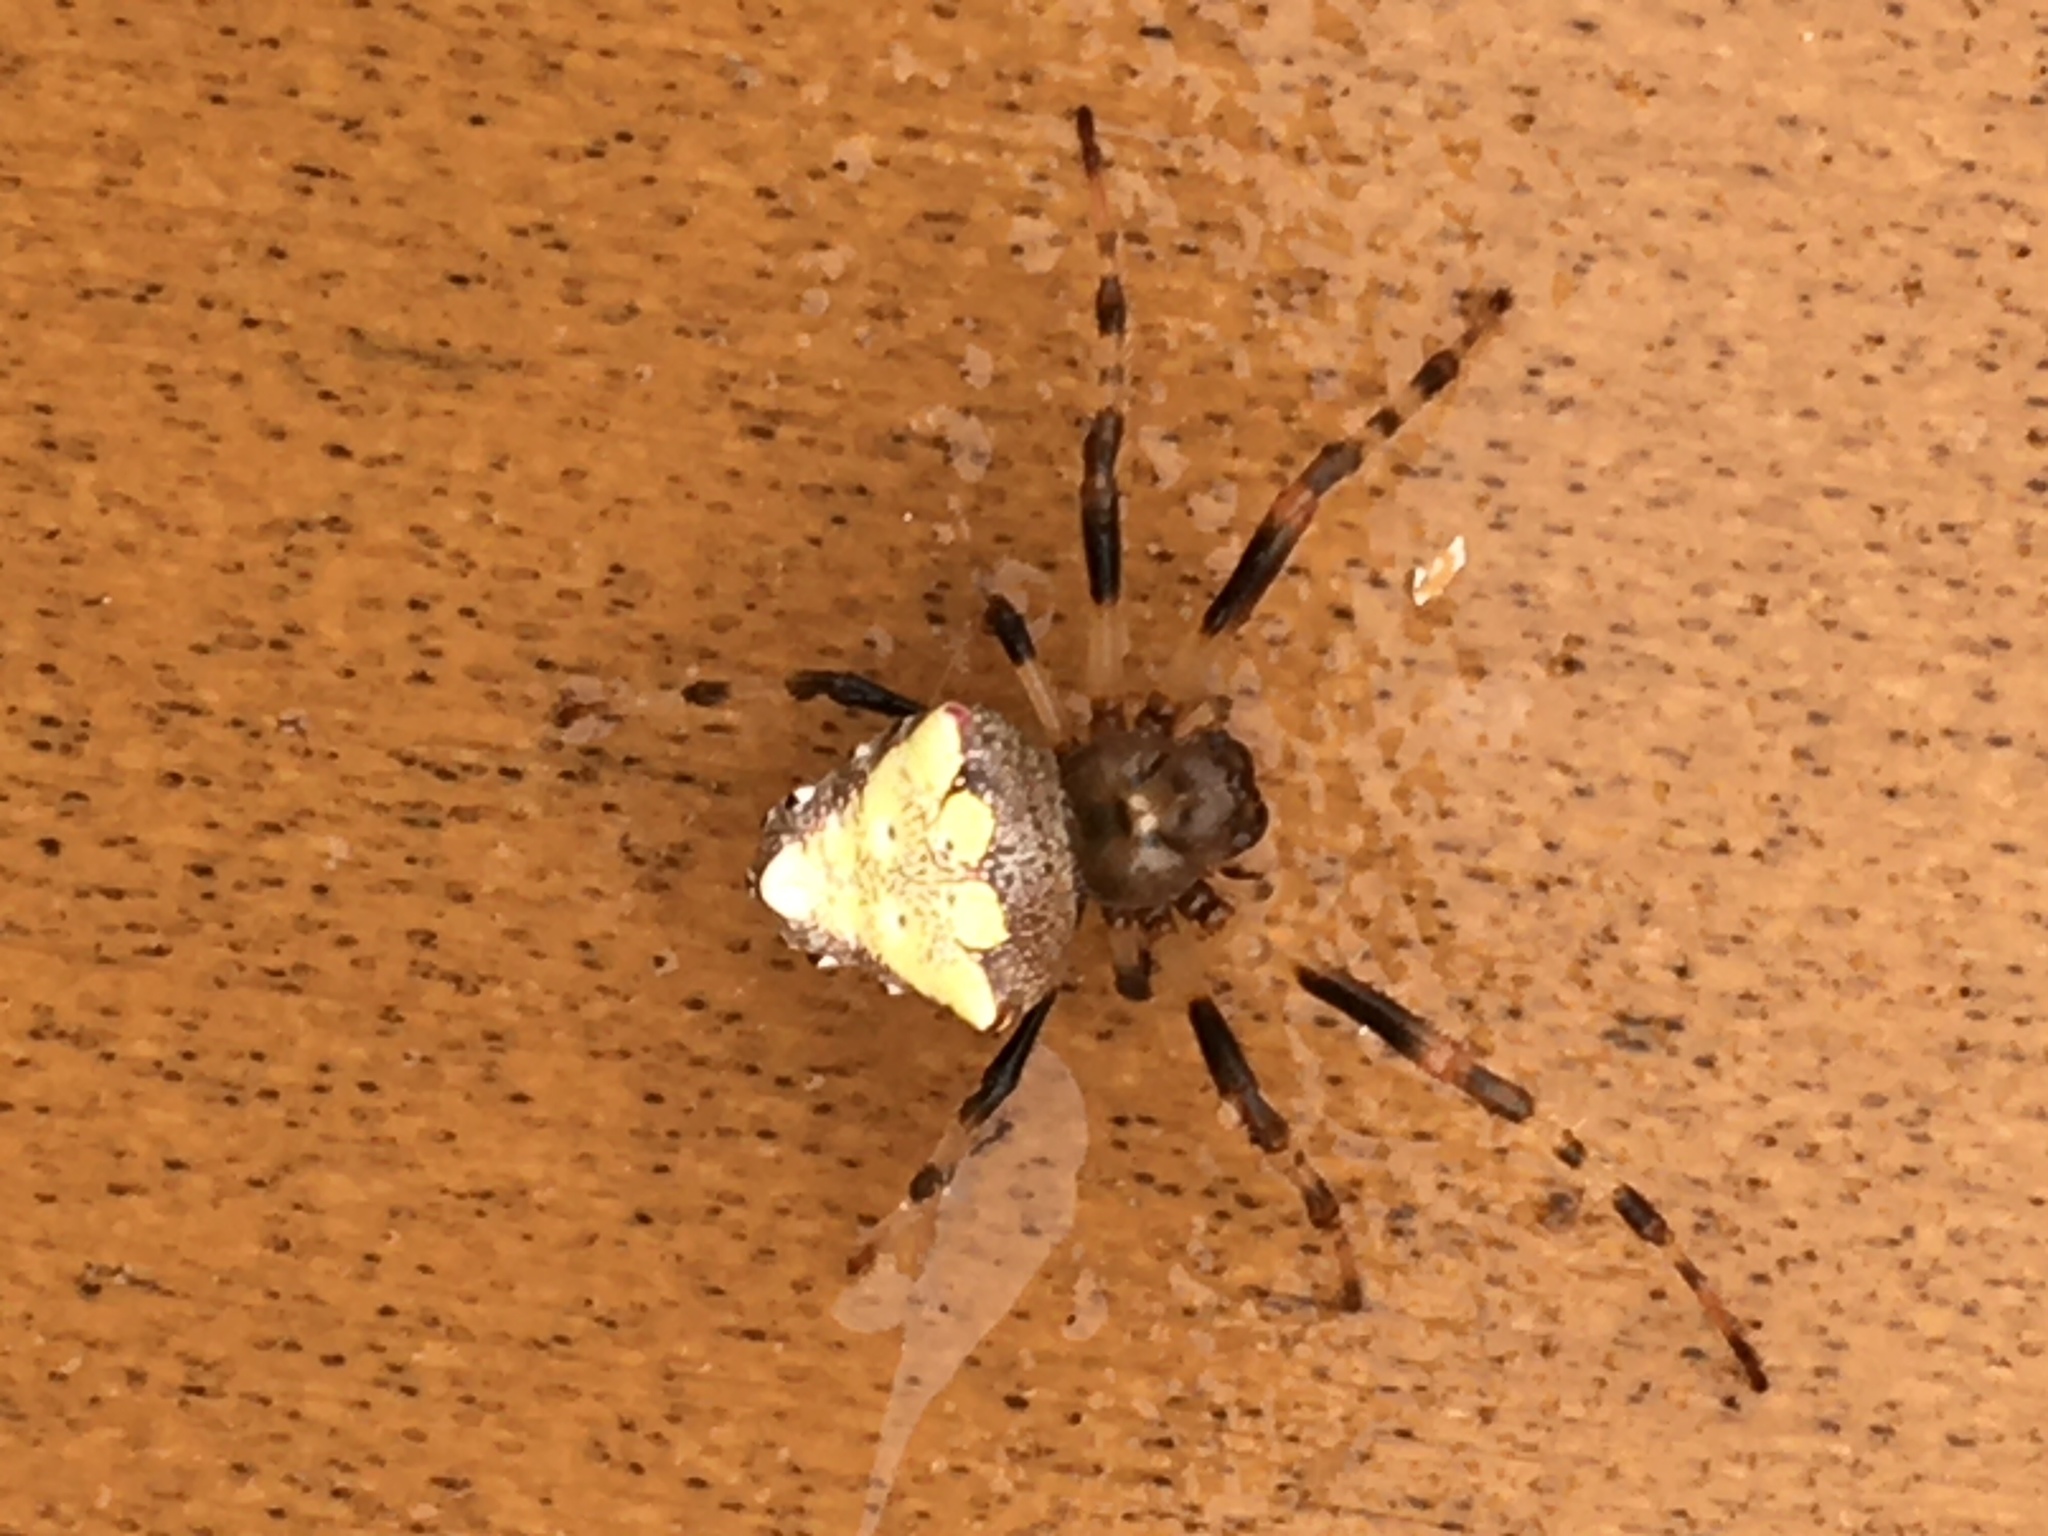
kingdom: Animalia
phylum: Arthropoda
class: Arachnida
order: Araneae
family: Araneidae
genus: Verrucosa
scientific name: Verrucosa arenata
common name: Orb weavers
